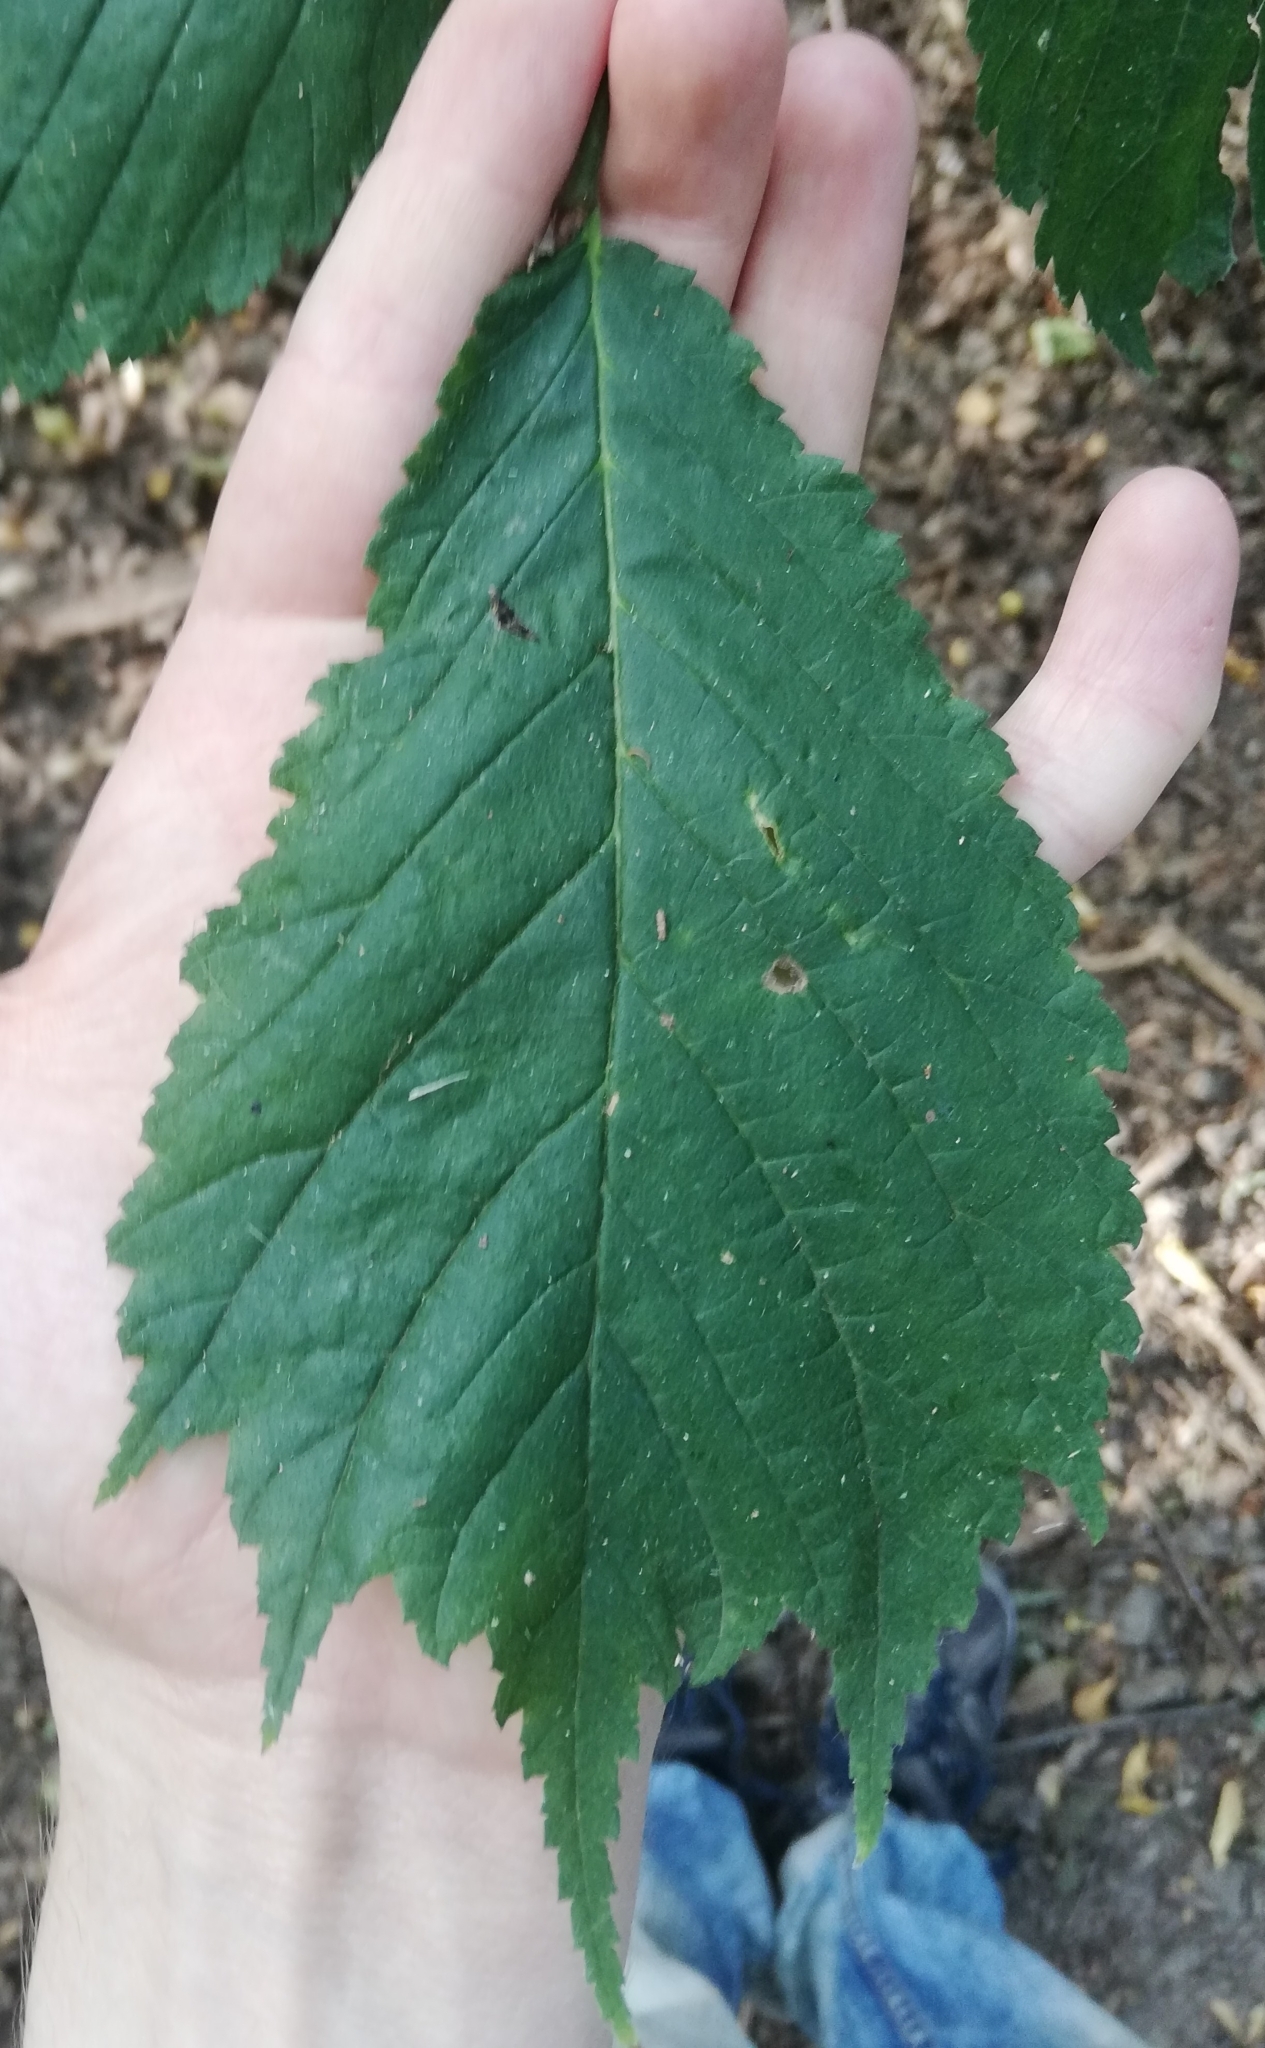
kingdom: Plantae
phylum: Tracheophyta
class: Magnoliopsida
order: Rosales
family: Ulmaceae
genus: Ulmus
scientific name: Ulmus glabra
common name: Wych elm
